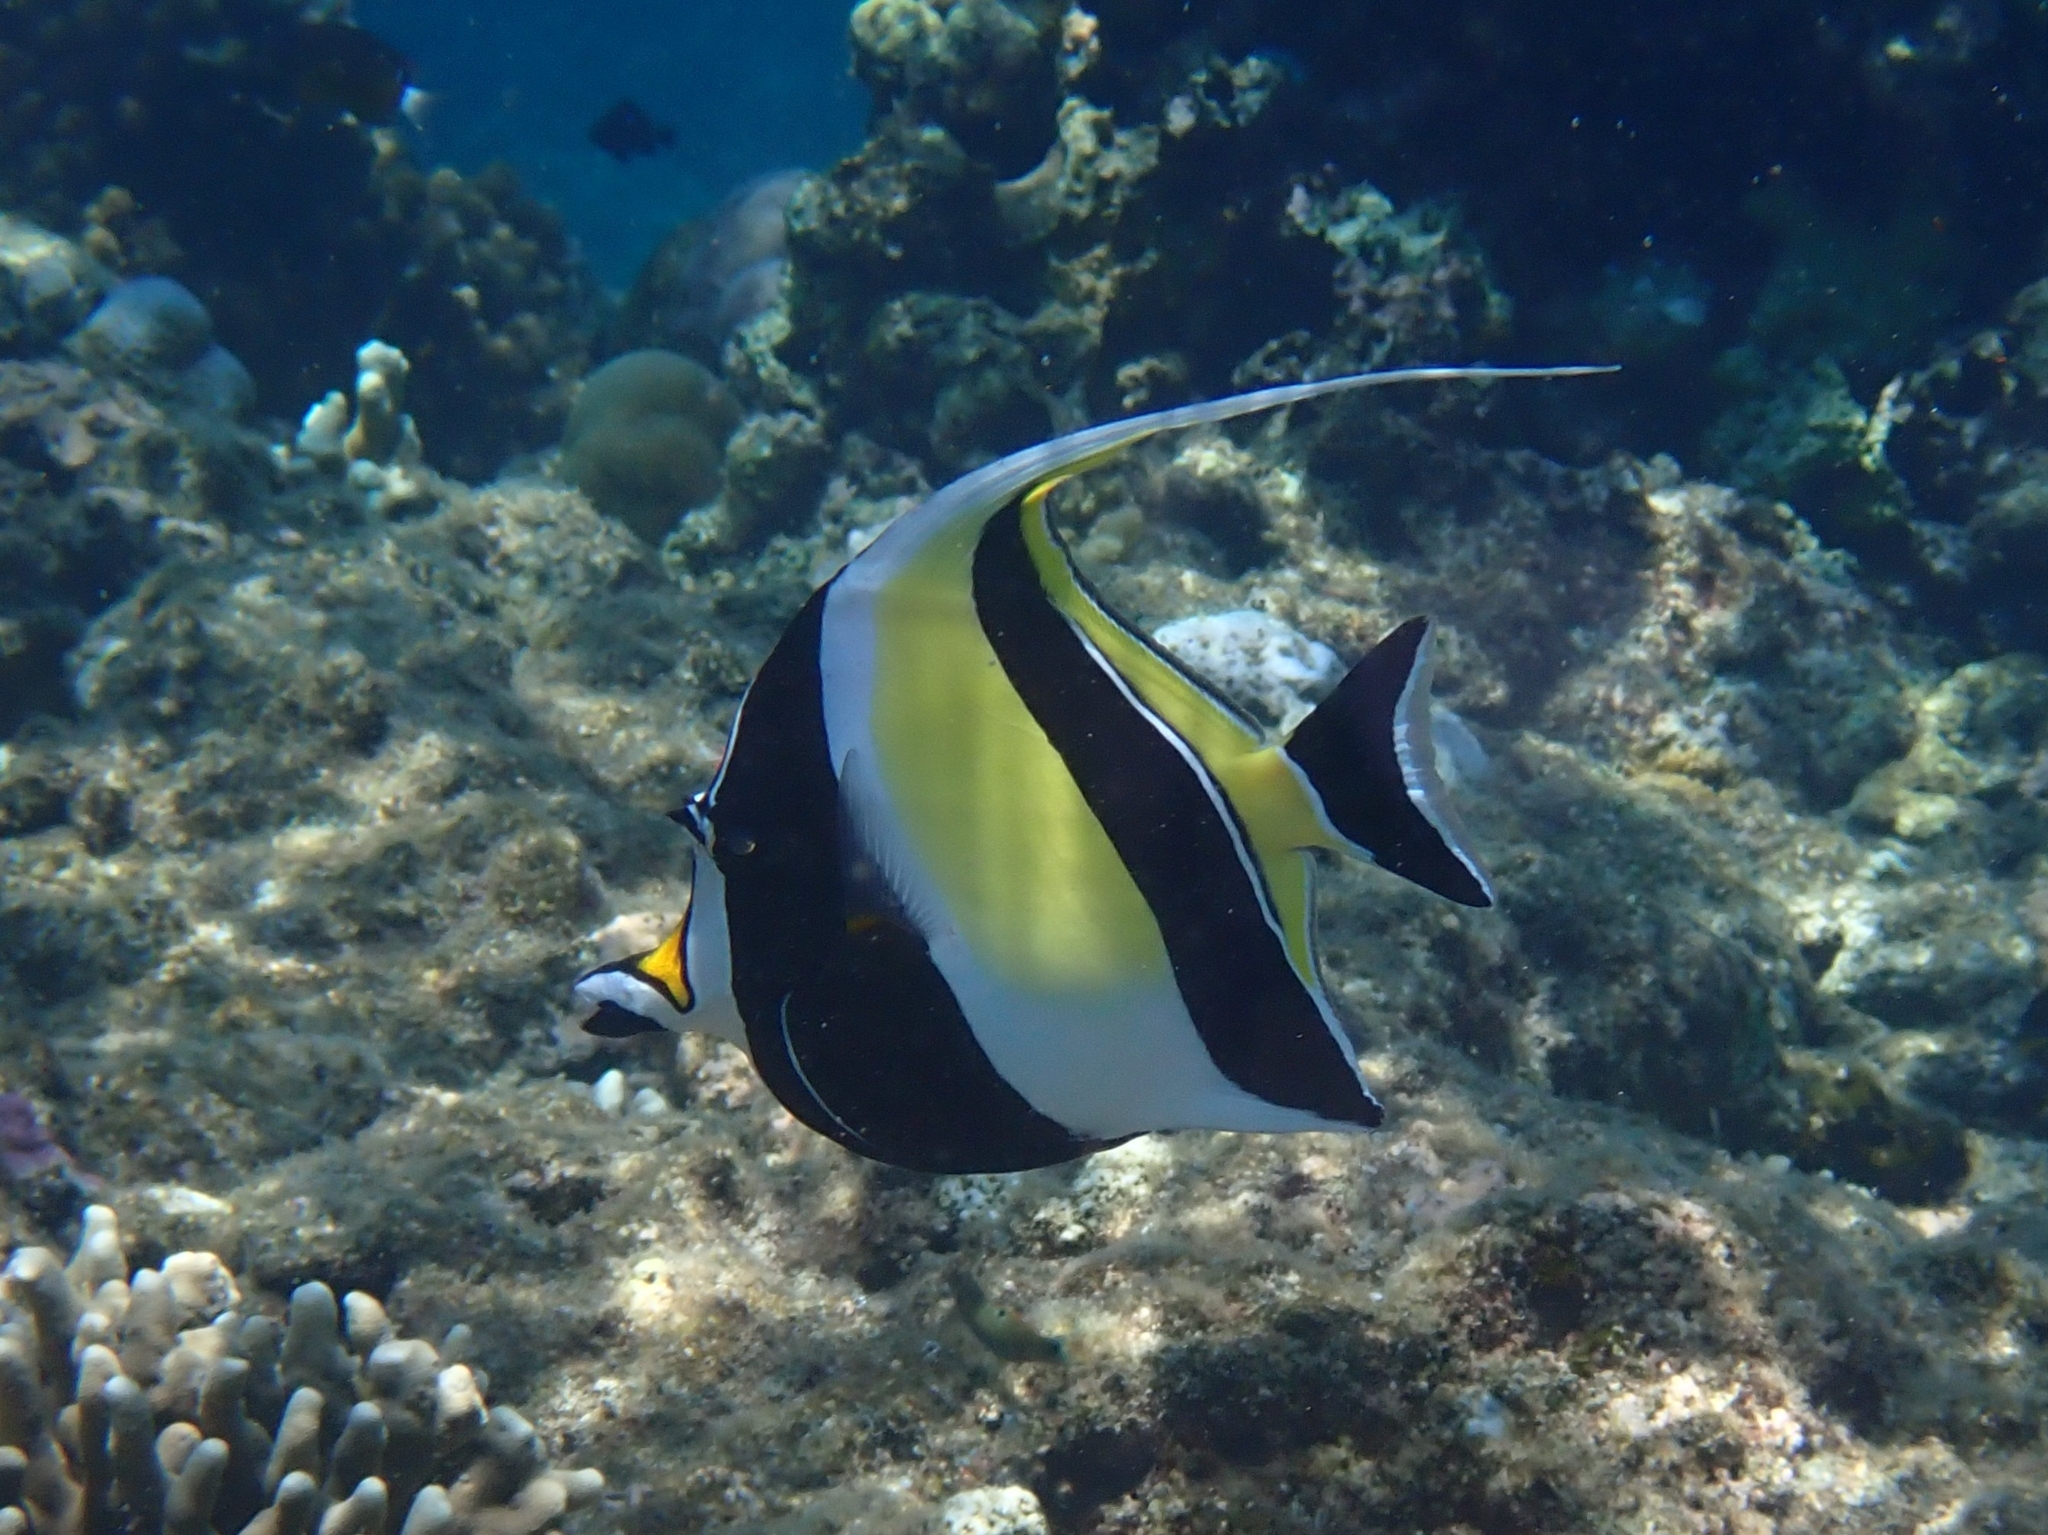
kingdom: Animalia
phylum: Chordata
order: Perciformes
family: Zanclidae
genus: Zanclus
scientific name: Zanclus cornutus
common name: Moorish idol
